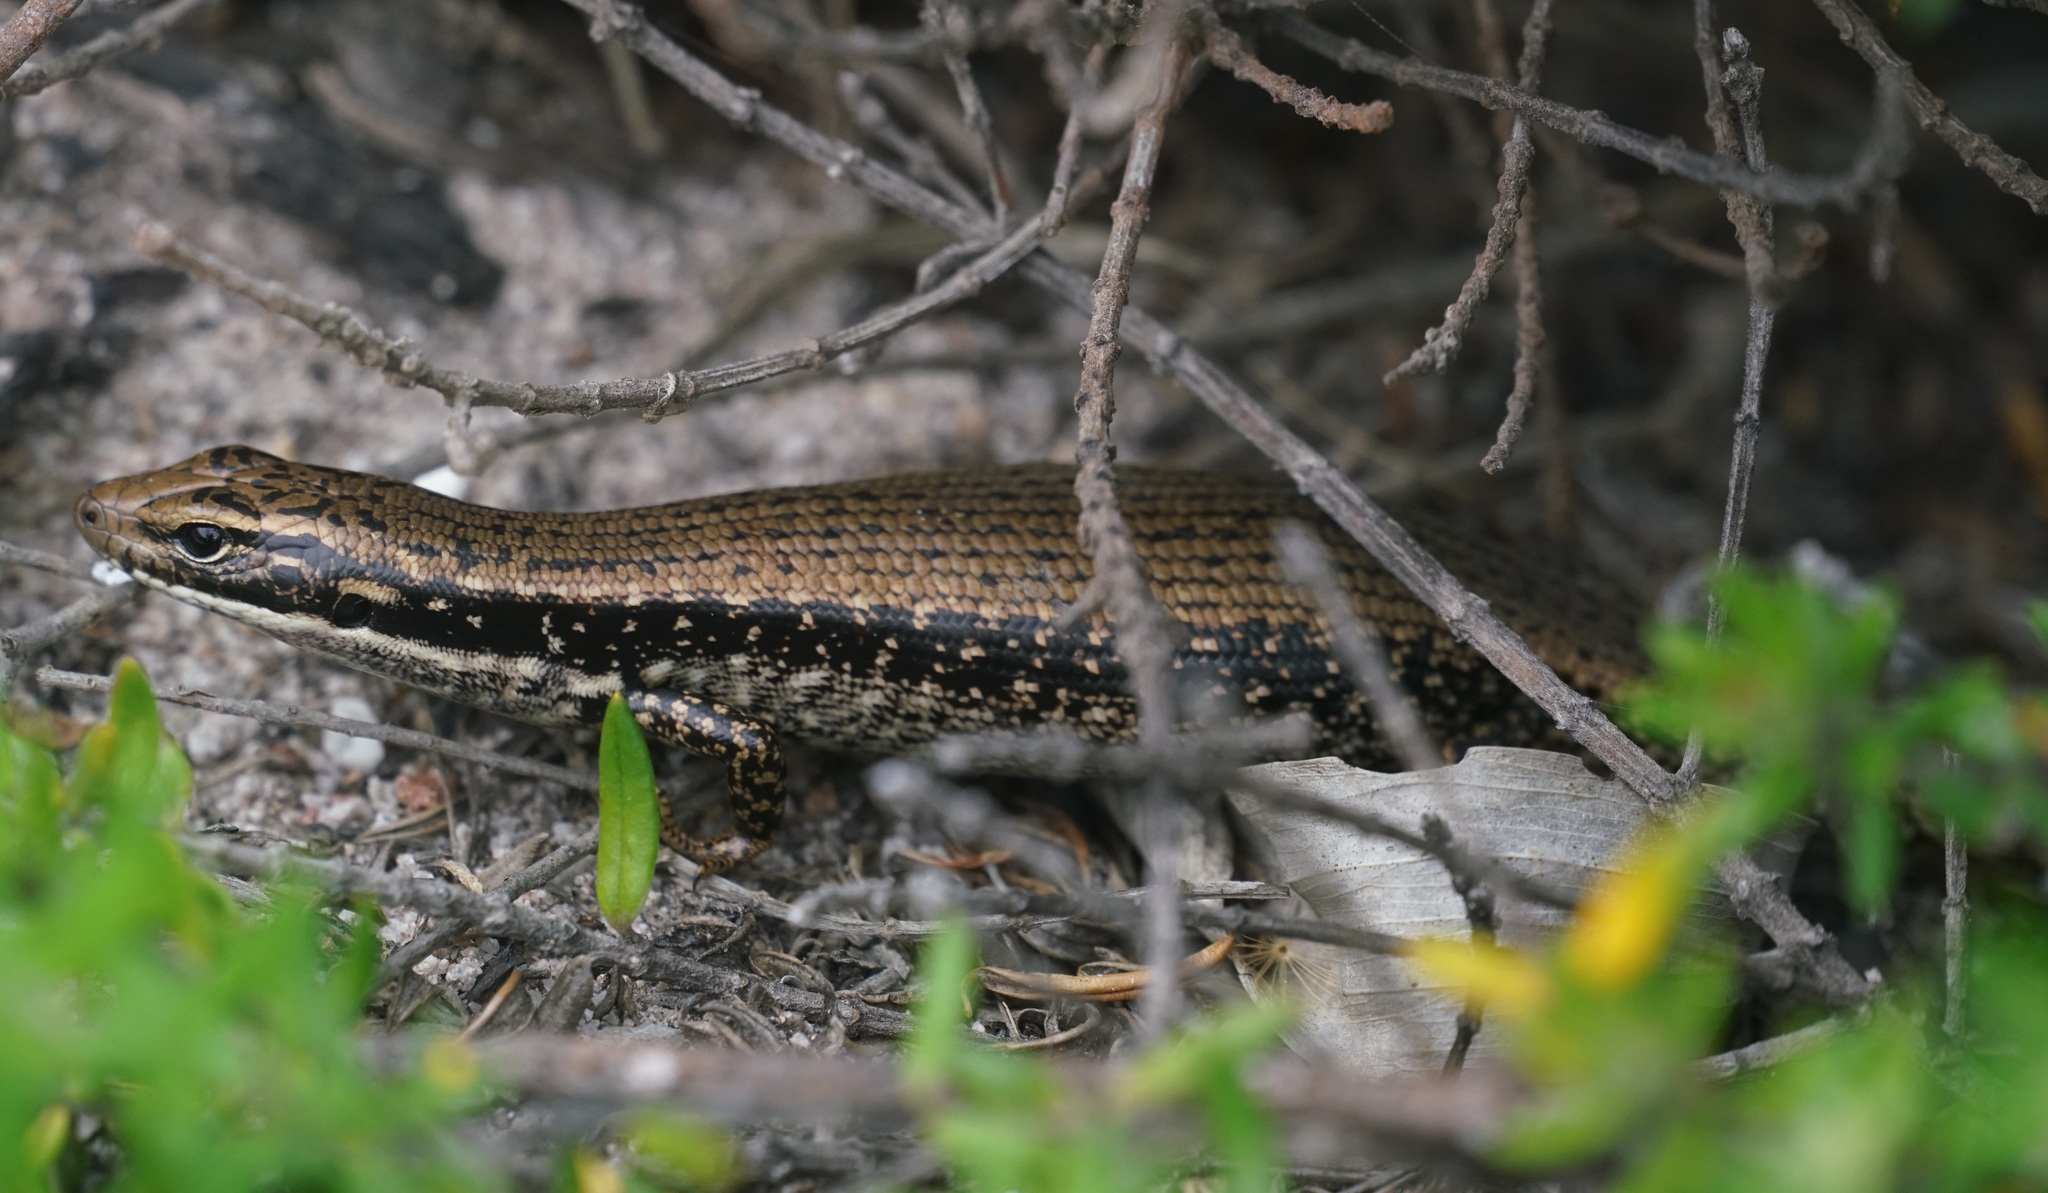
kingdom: Animalia
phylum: Chordata
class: Squamata
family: Scincidae
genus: Eulamprus
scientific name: Eulamprus heatwolei
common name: Warm-temperate water-skink
